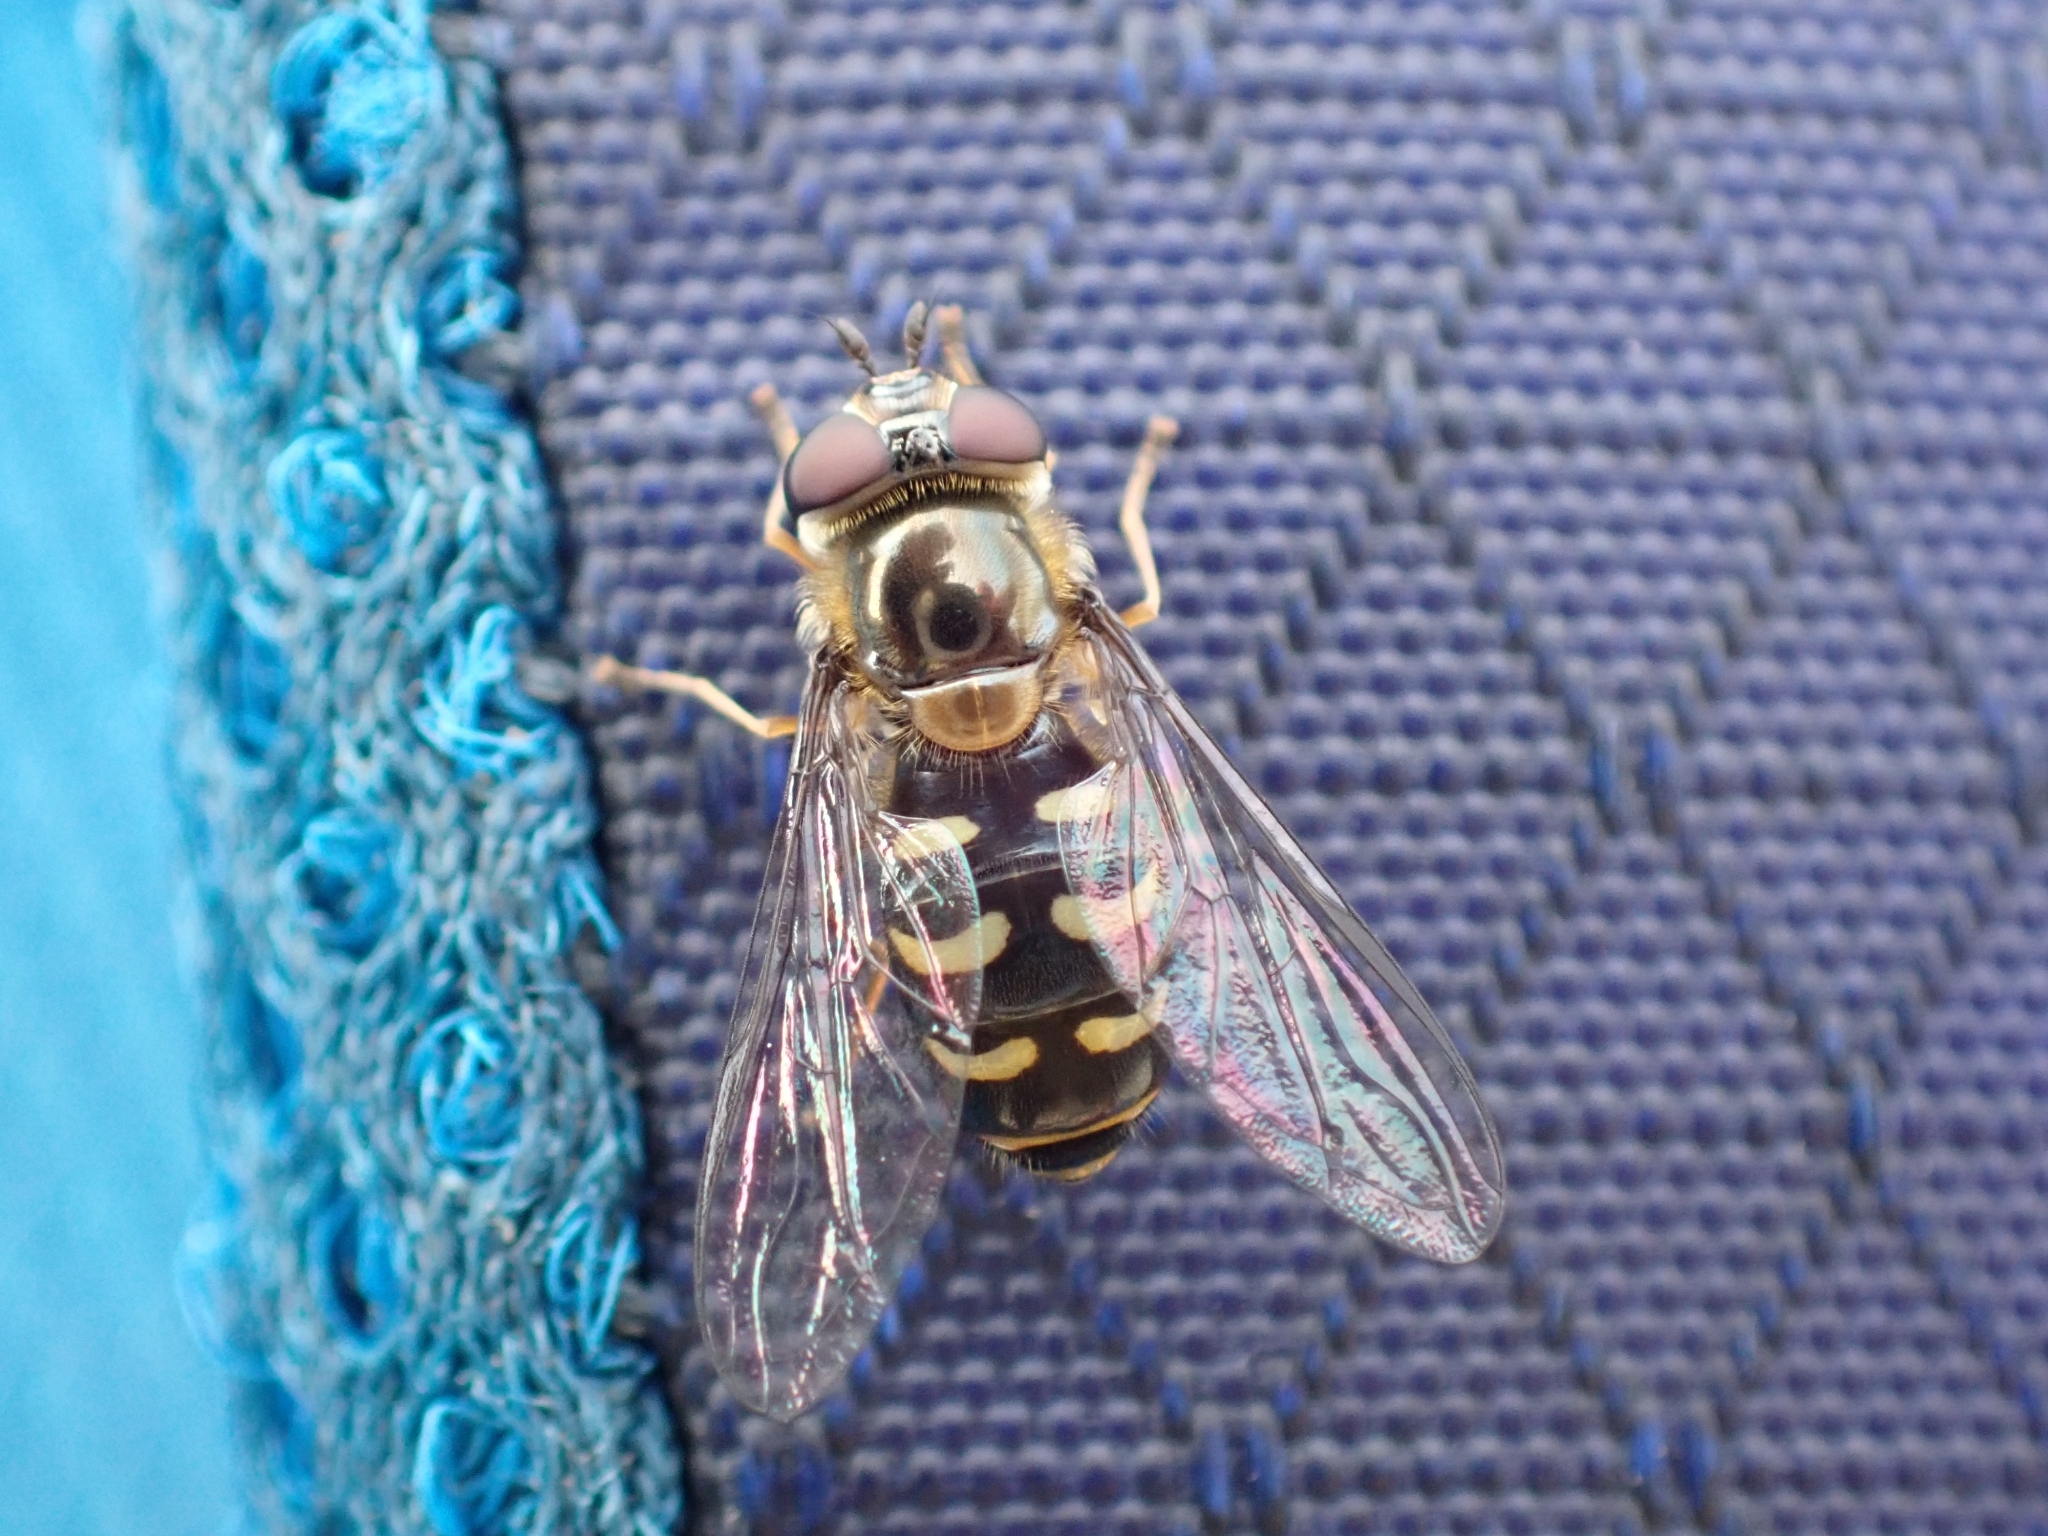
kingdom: Animalia
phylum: Arthropoda
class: Insecta
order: Diptera
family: Syrphidae
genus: Lapposyrphus
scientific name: Lapposyrphus lapponicus
